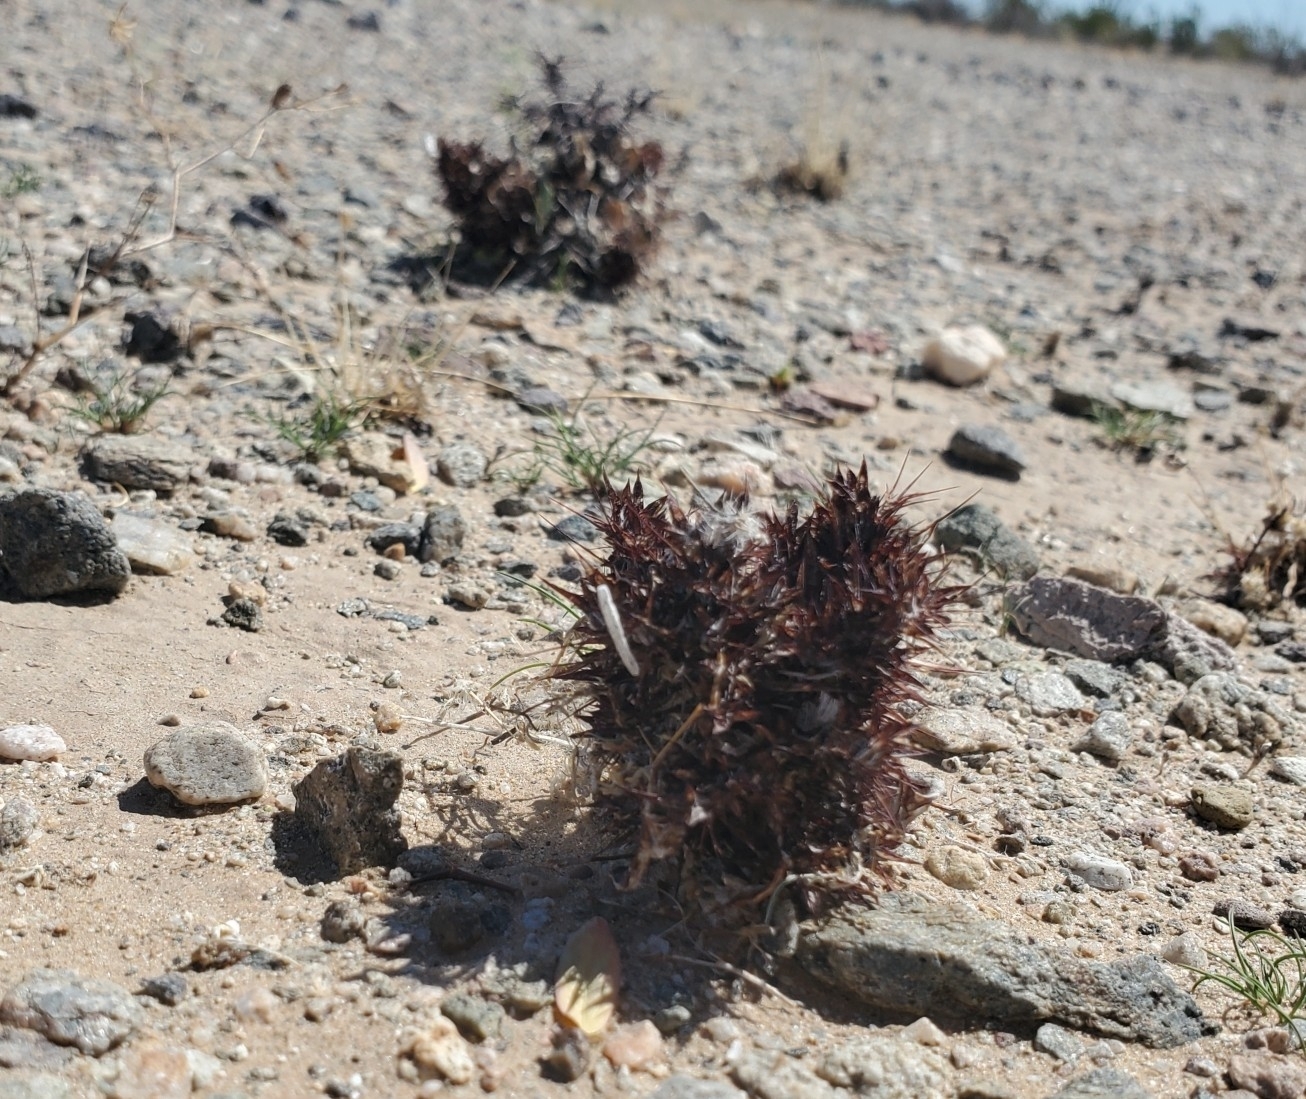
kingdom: Plantae
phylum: Tracheophyta
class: Magnoliopsida
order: Caryophyllales
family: Polygonaceae
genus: Chorizanthe
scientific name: Chorizanthe rigida
